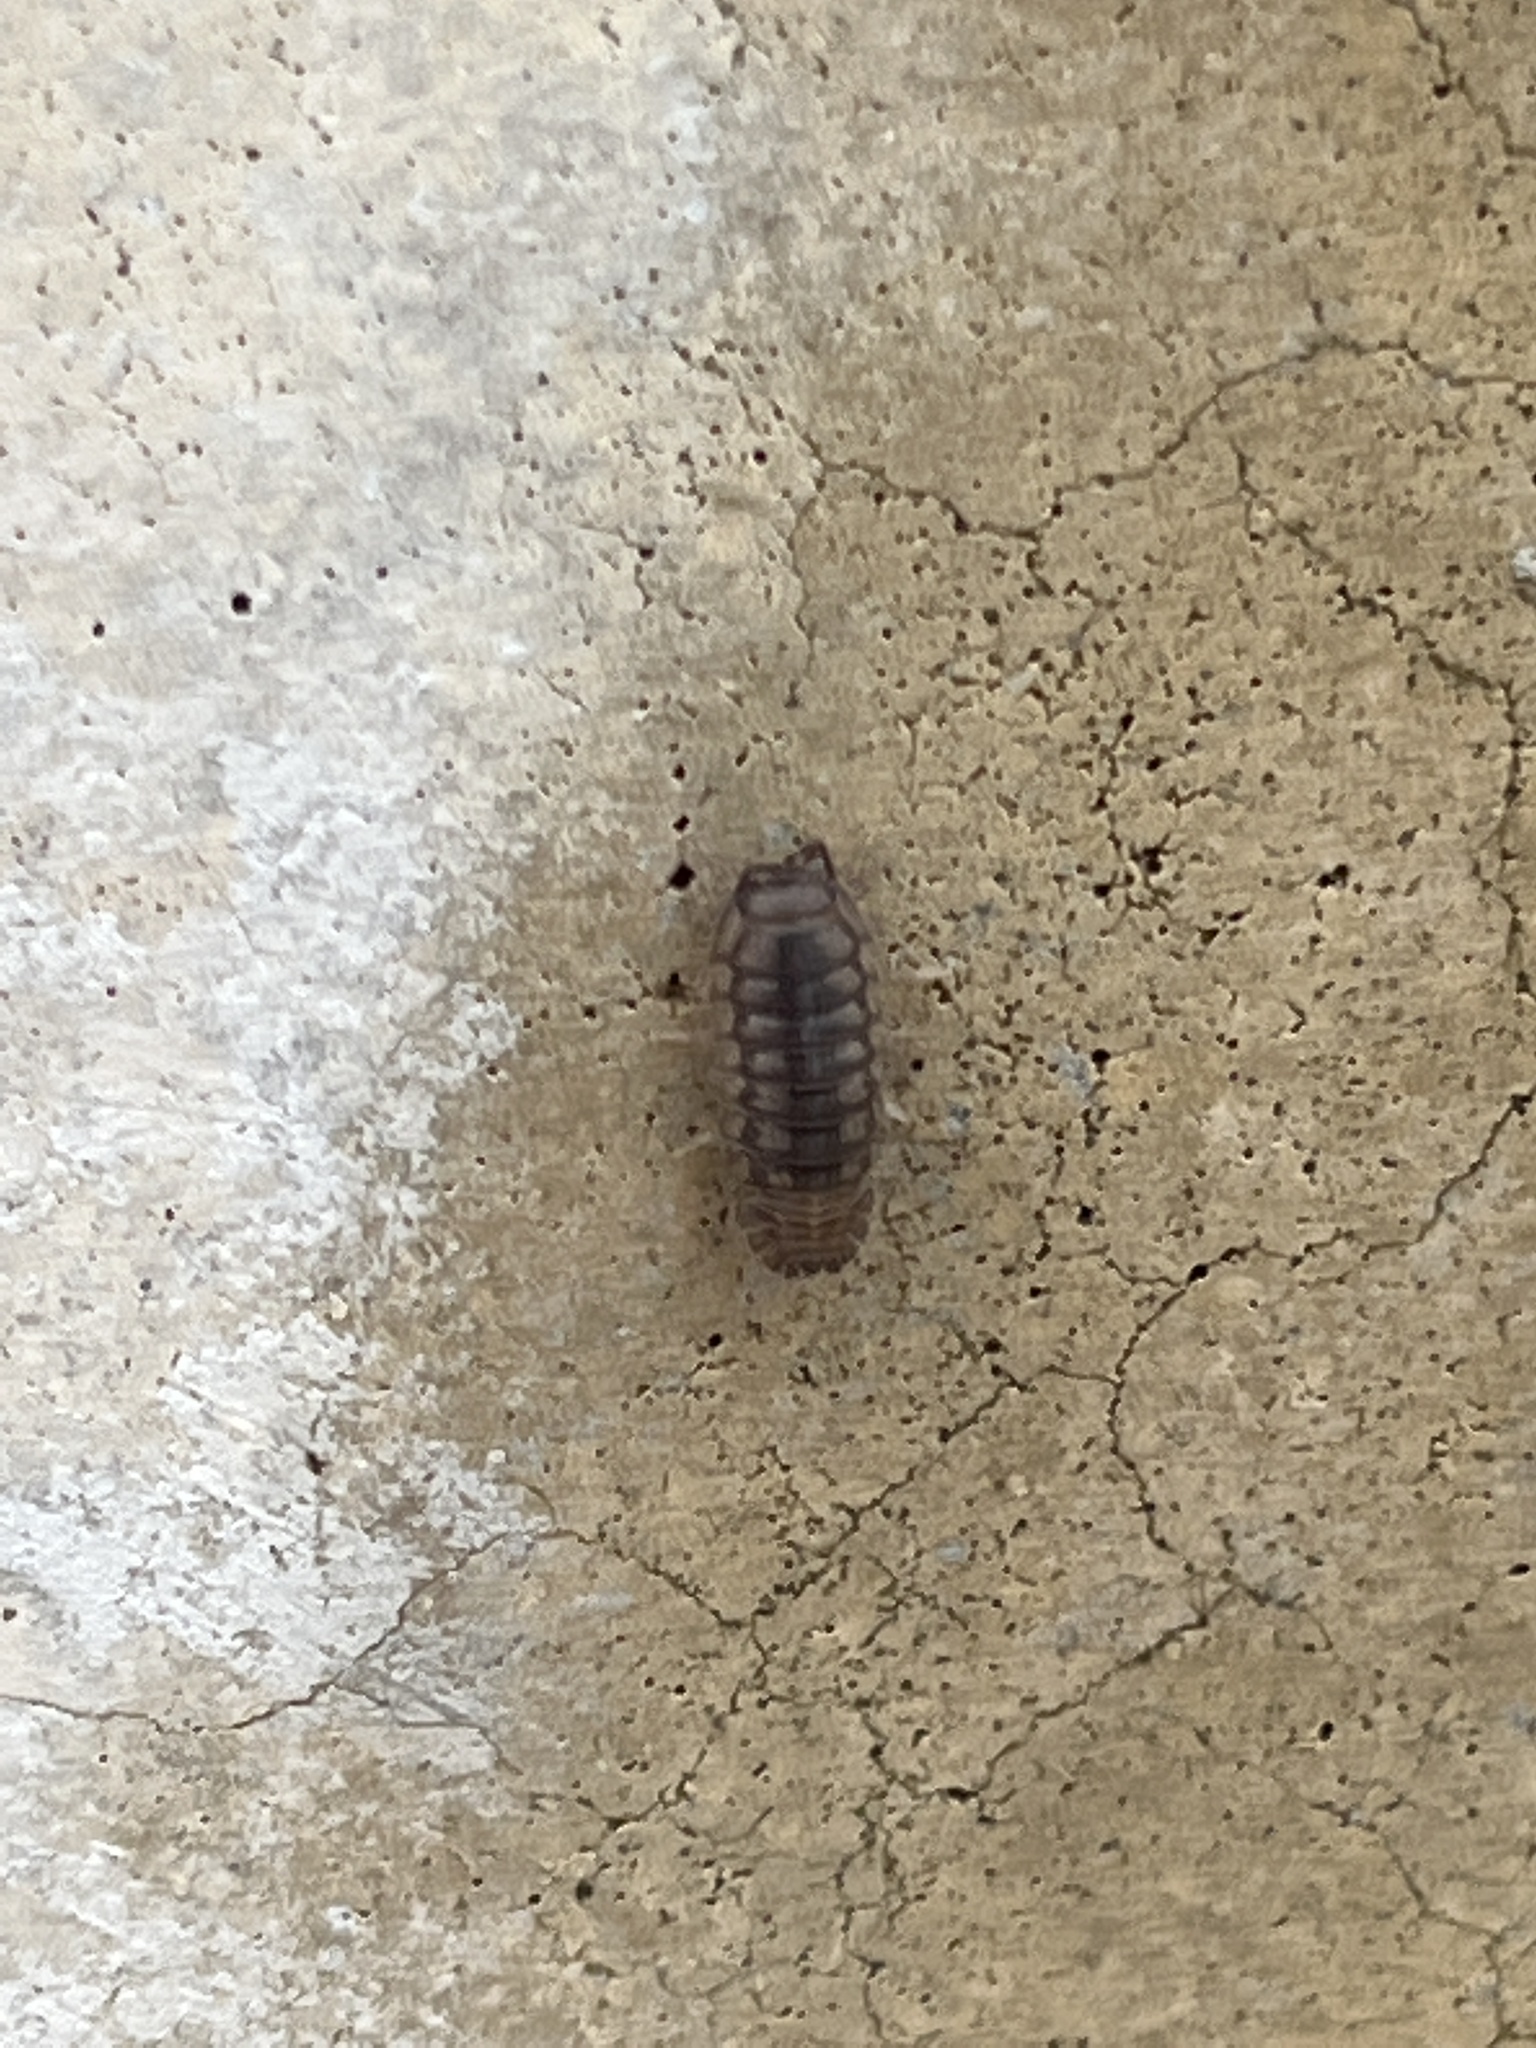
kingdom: Animalia
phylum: Arthropoda
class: Malacostraca
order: Isopoda
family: Armadillidiidae
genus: Armadillidium
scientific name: Armadillidium nasatum
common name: Isopod
